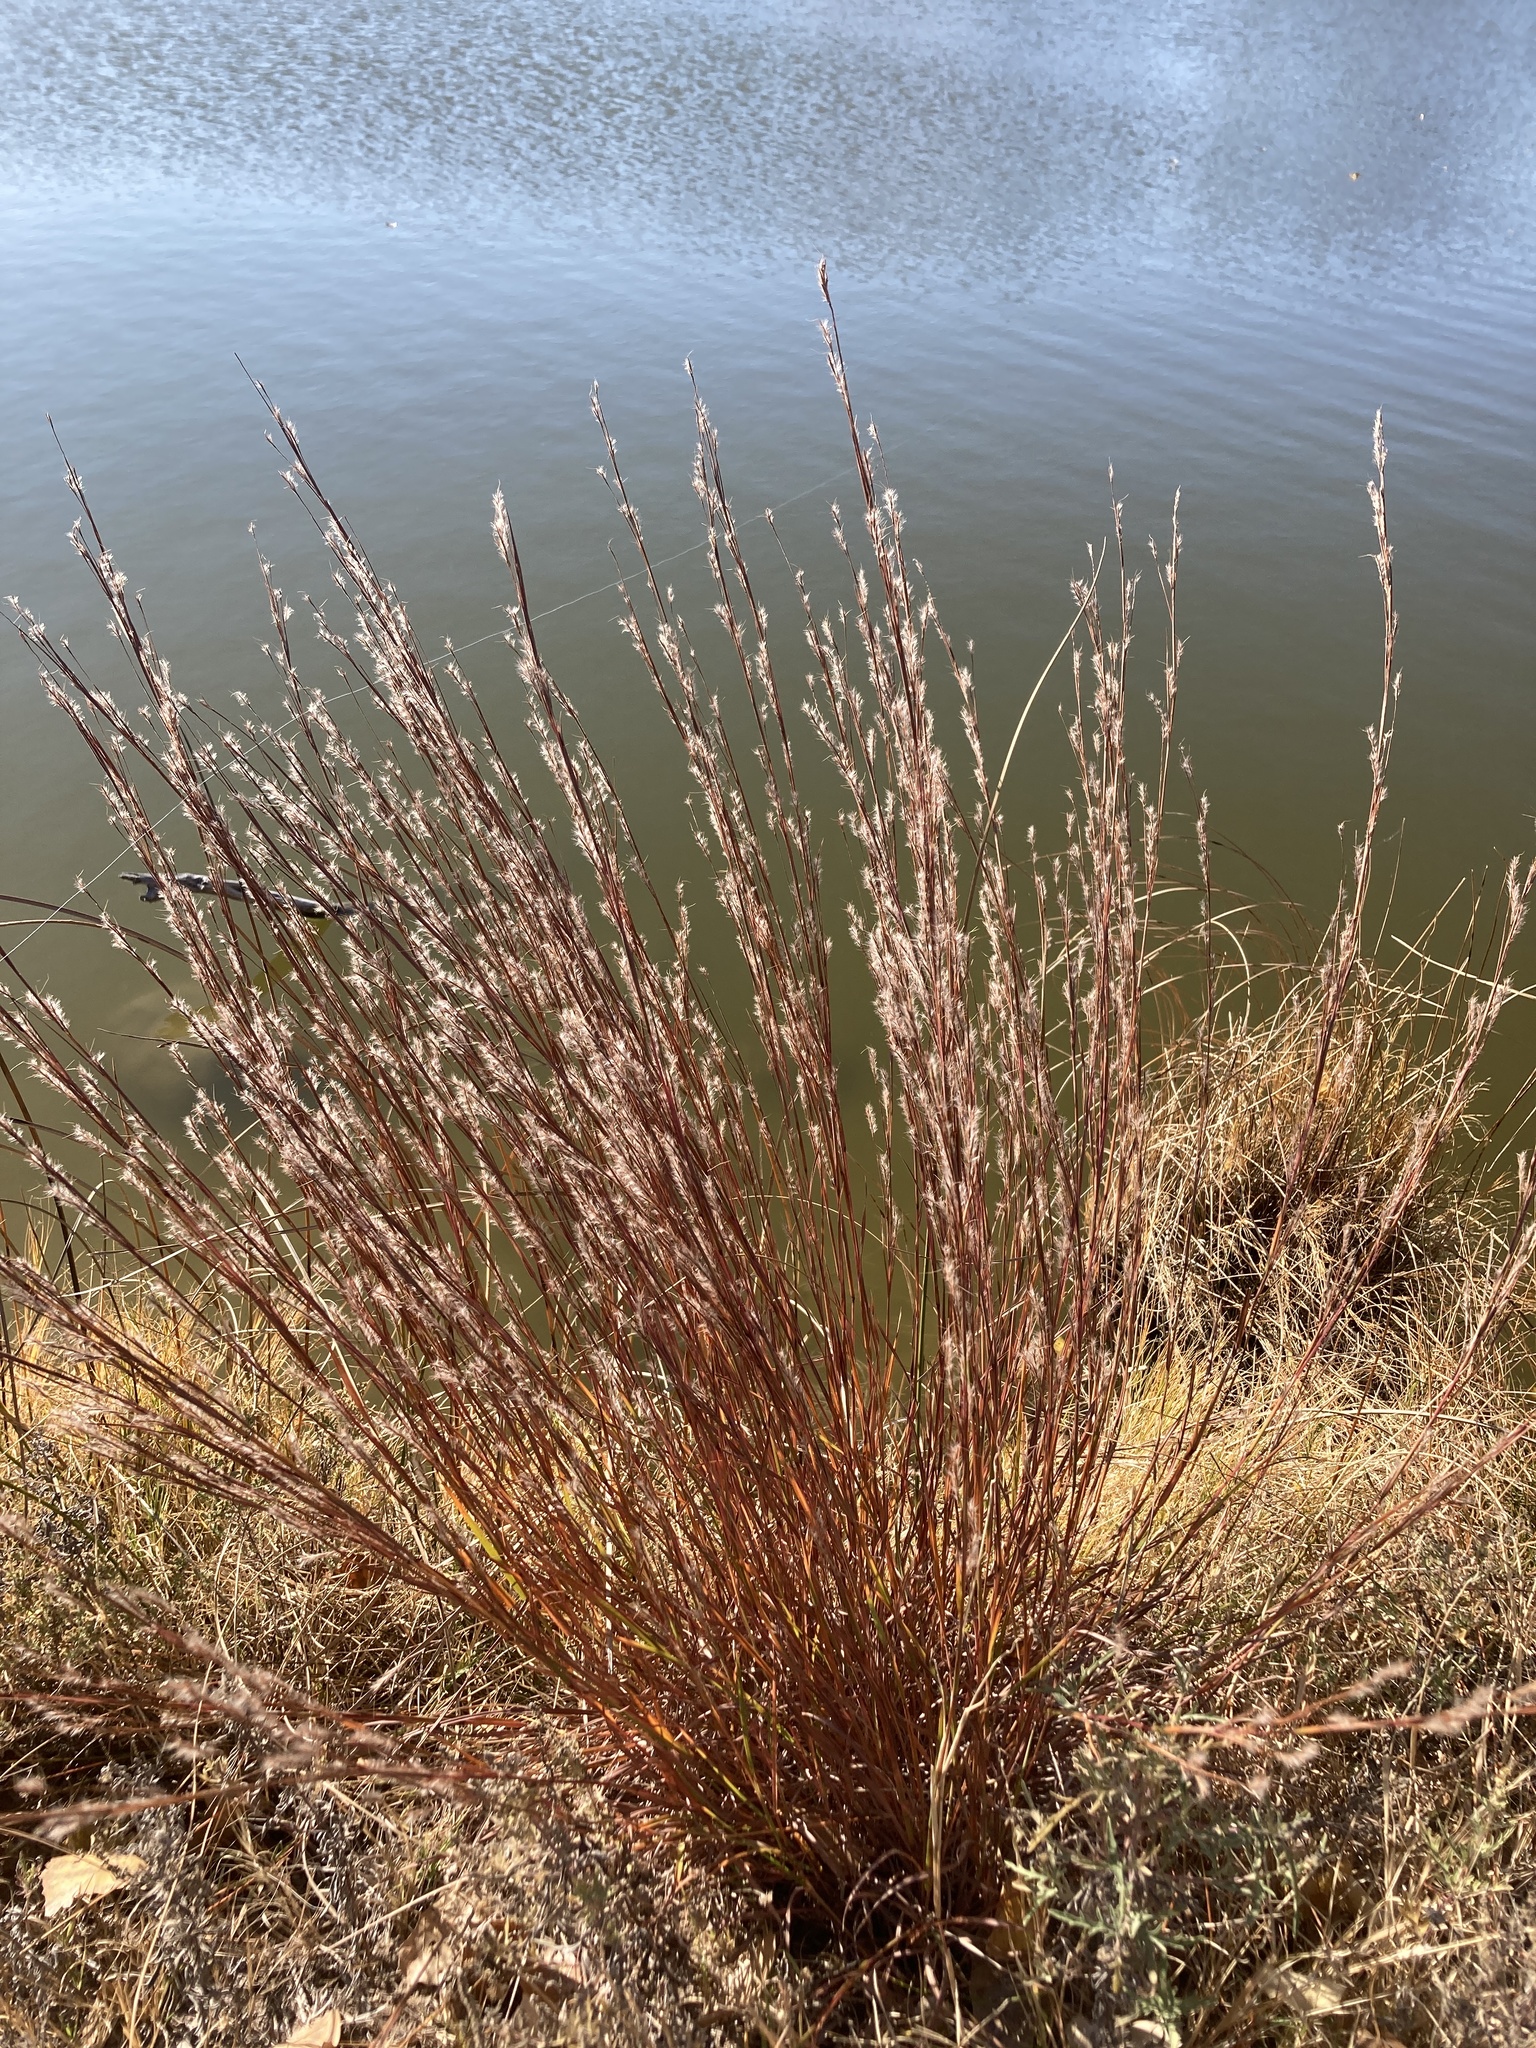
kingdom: Plantae
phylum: Tracheophyta
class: Liliopsida
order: Poales
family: Poaceae
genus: Schizachyrium
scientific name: Schizachyrium scoparium
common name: Little bluestem
